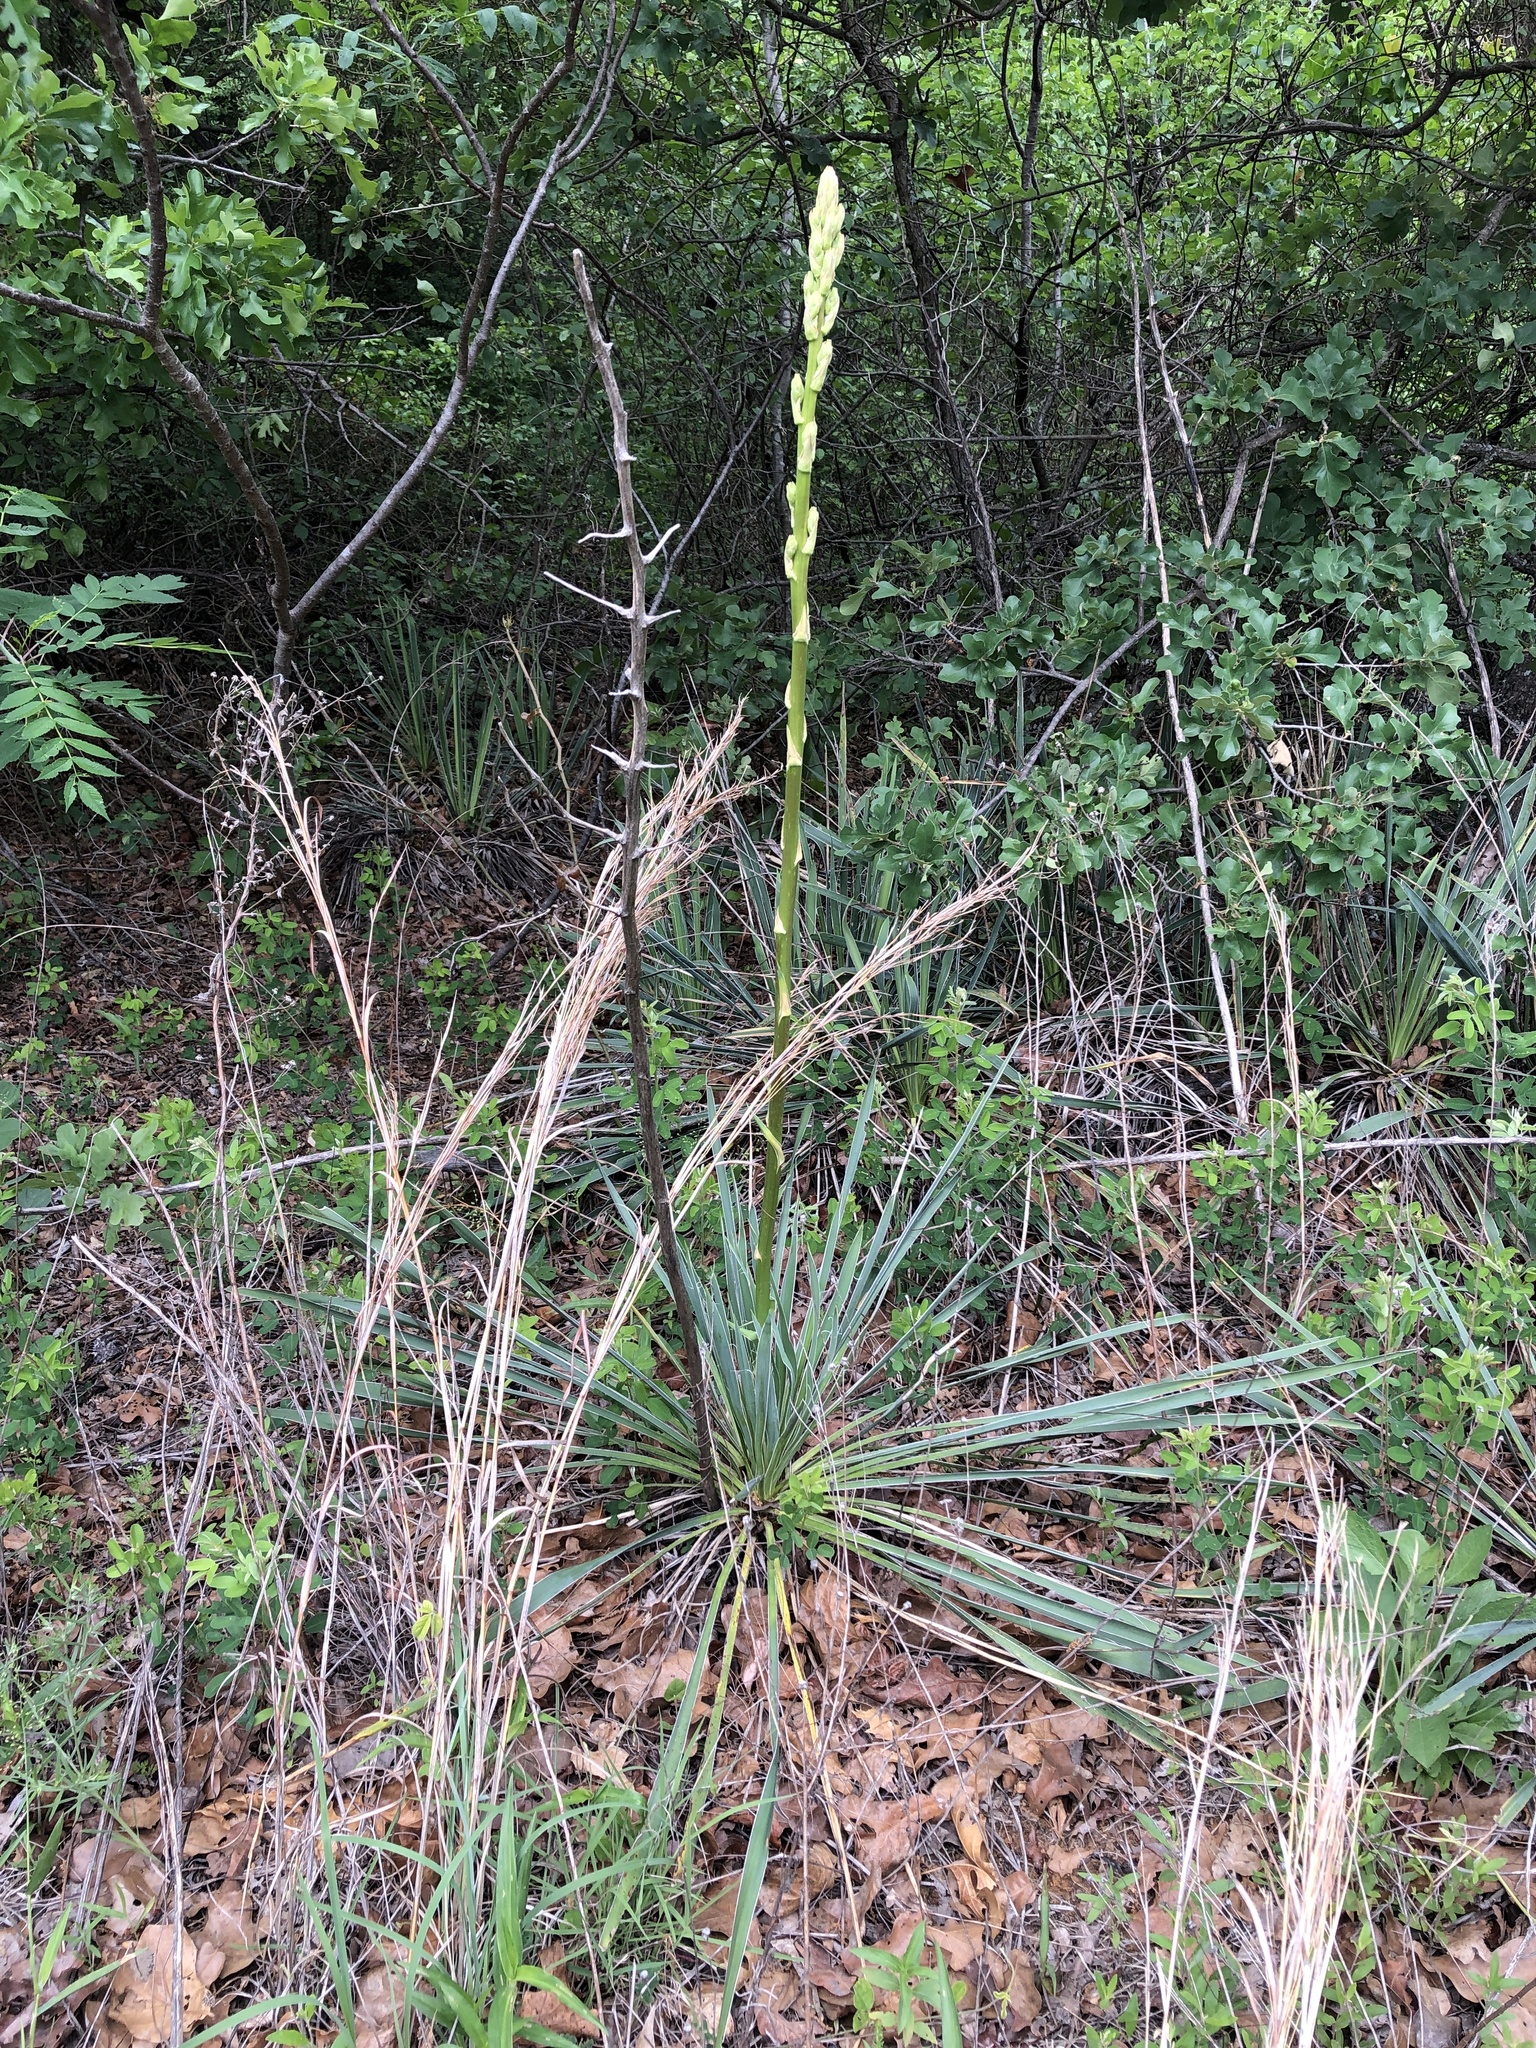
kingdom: Plantae
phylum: Tracheophyta
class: Liliopsida
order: Asparagales
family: Asparagaceae
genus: Yucca
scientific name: Yucca necopina
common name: Glen rose yucca
